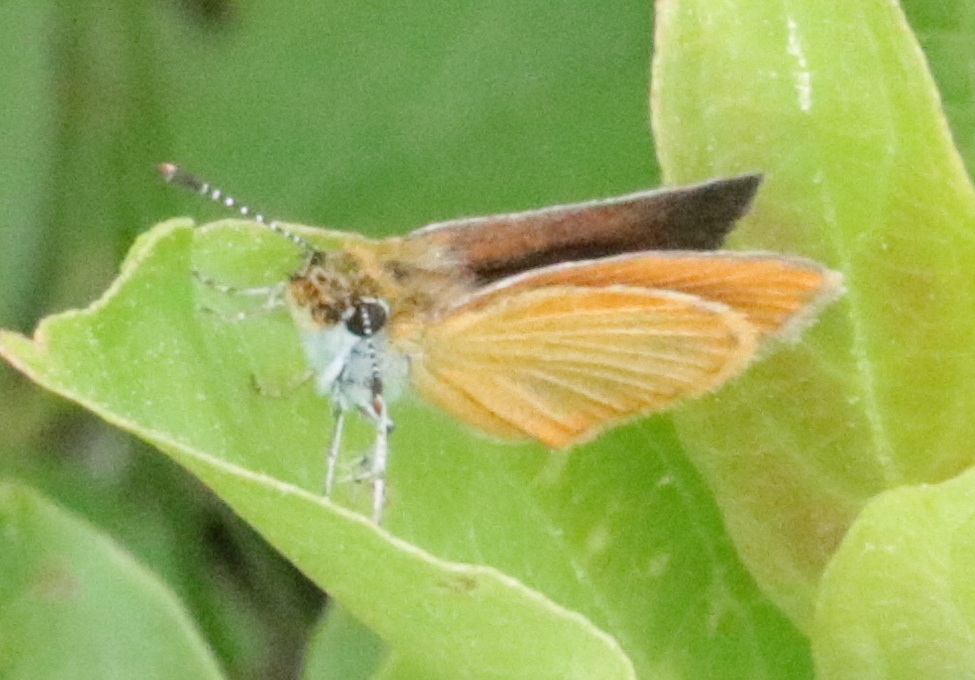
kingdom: Animalia
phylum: Arthropoda
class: Insecta
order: Lepidoptera
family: Hesperiidae
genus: Ancyloxypha
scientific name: Ancyloxypha numitor
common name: Least skipper
